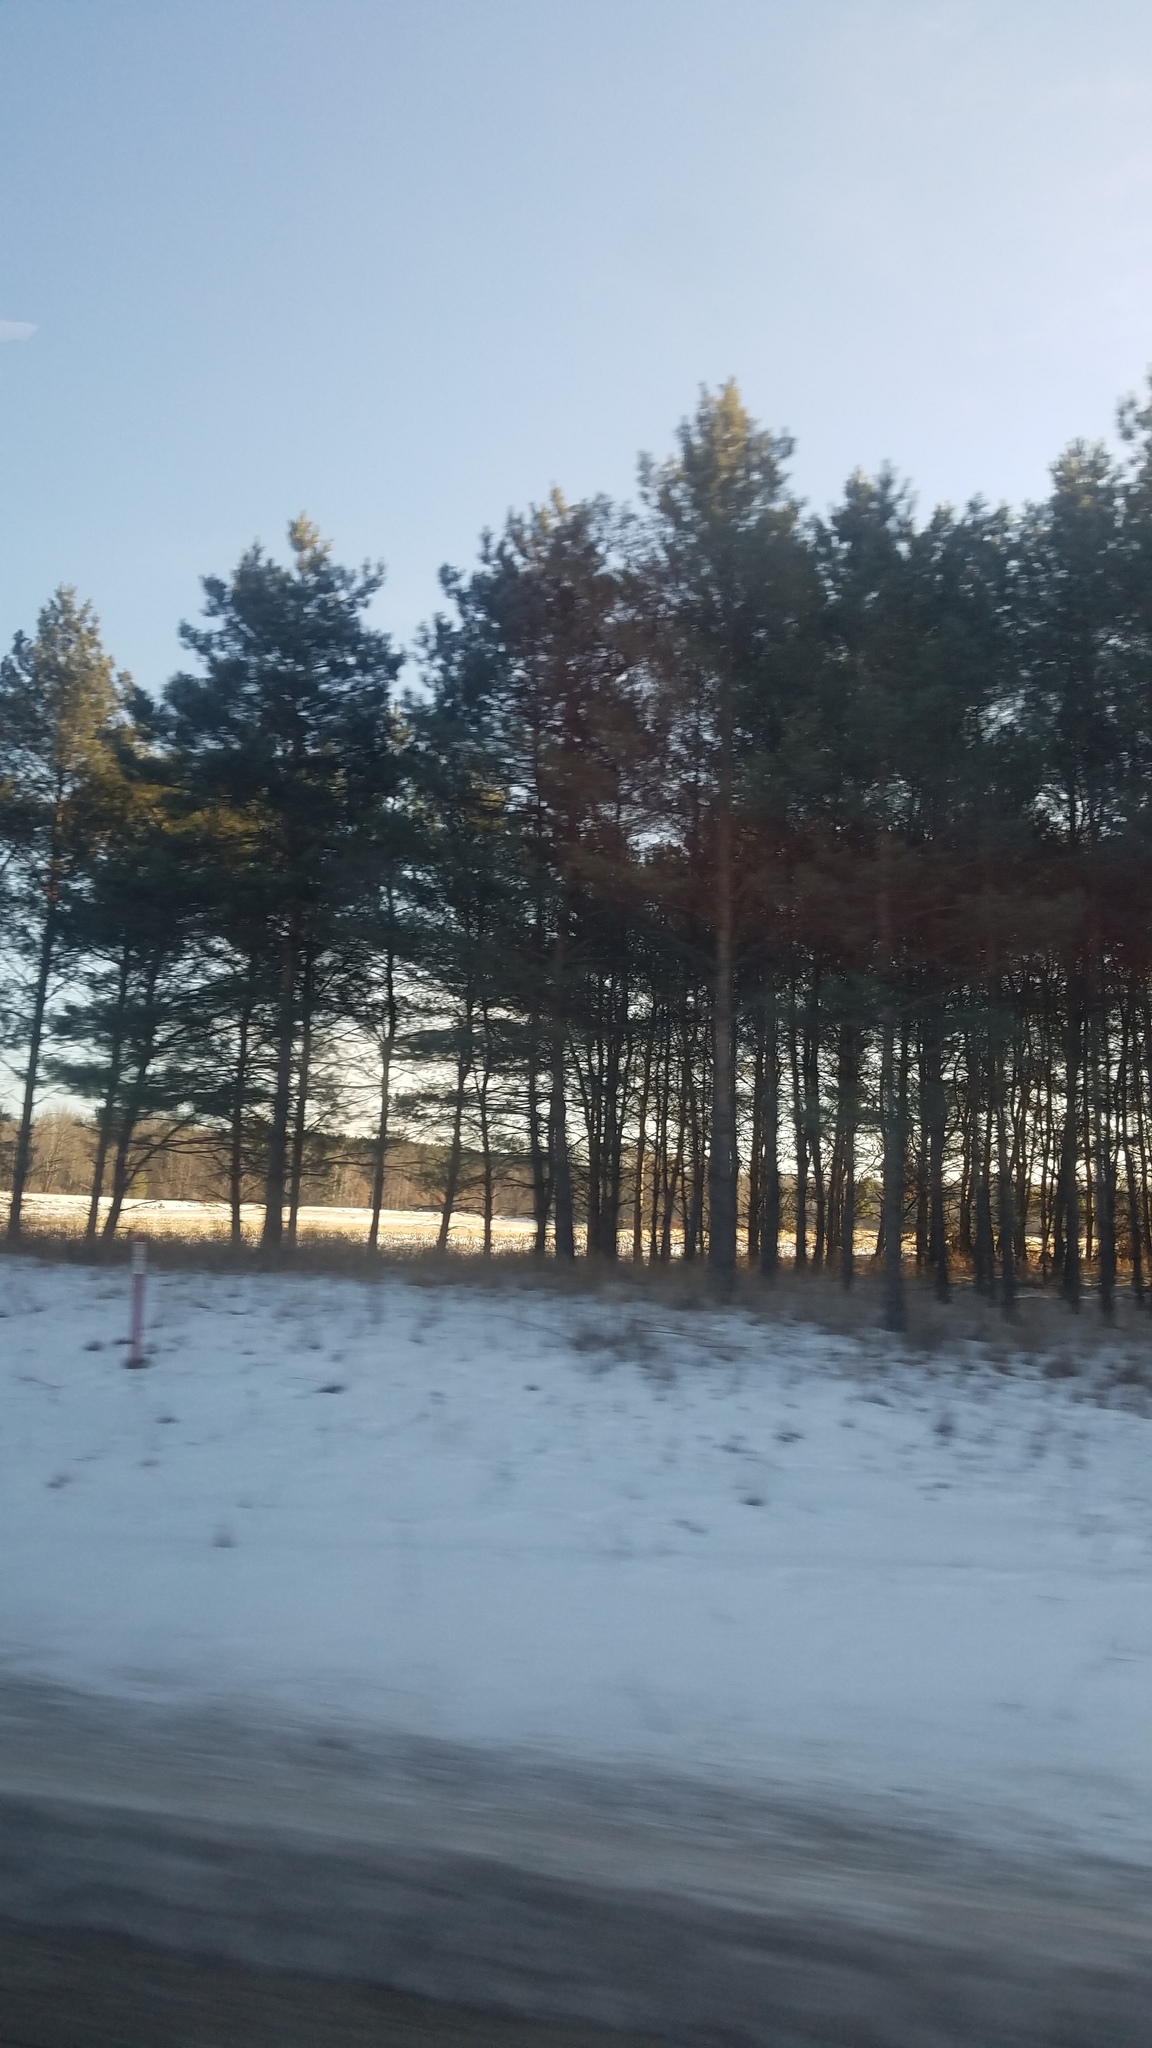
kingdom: Plantae
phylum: Tracheophyta
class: Pinopsida
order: Pinales
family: Pinaceae
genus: Pinus
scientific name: Pinus strobus
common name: Weymouth pine
